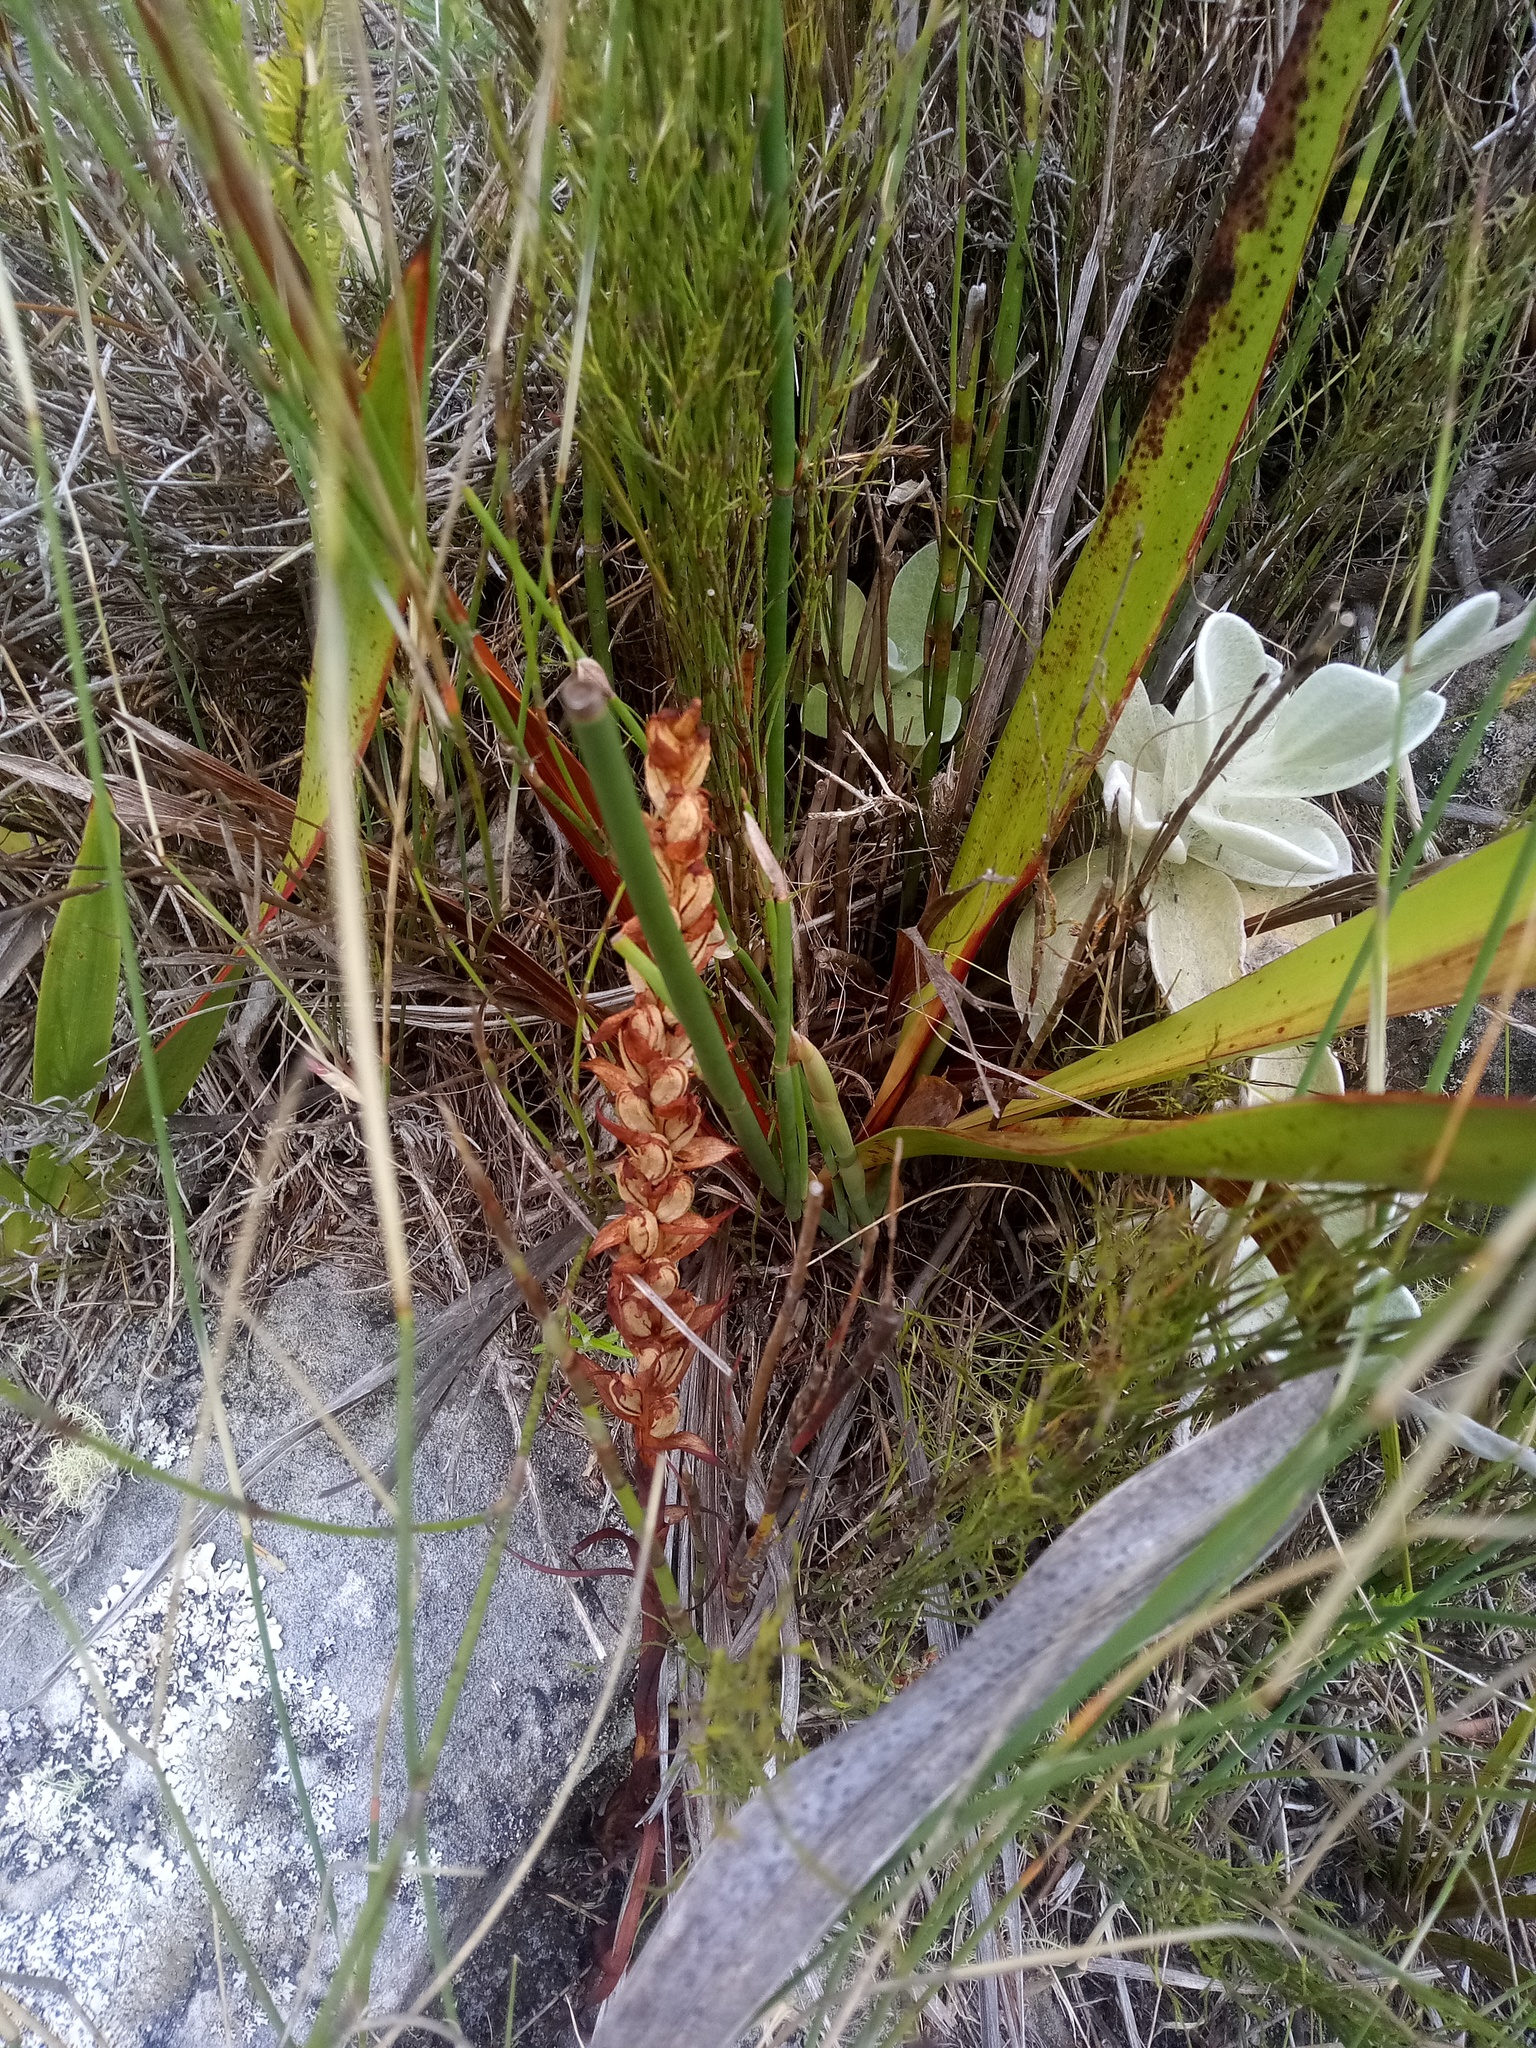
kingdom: Plantae
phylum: Tracheophyta
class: Liliopsida
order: Asparagales
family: Orchidaceae
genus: Disa
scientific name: Disa bracteata
